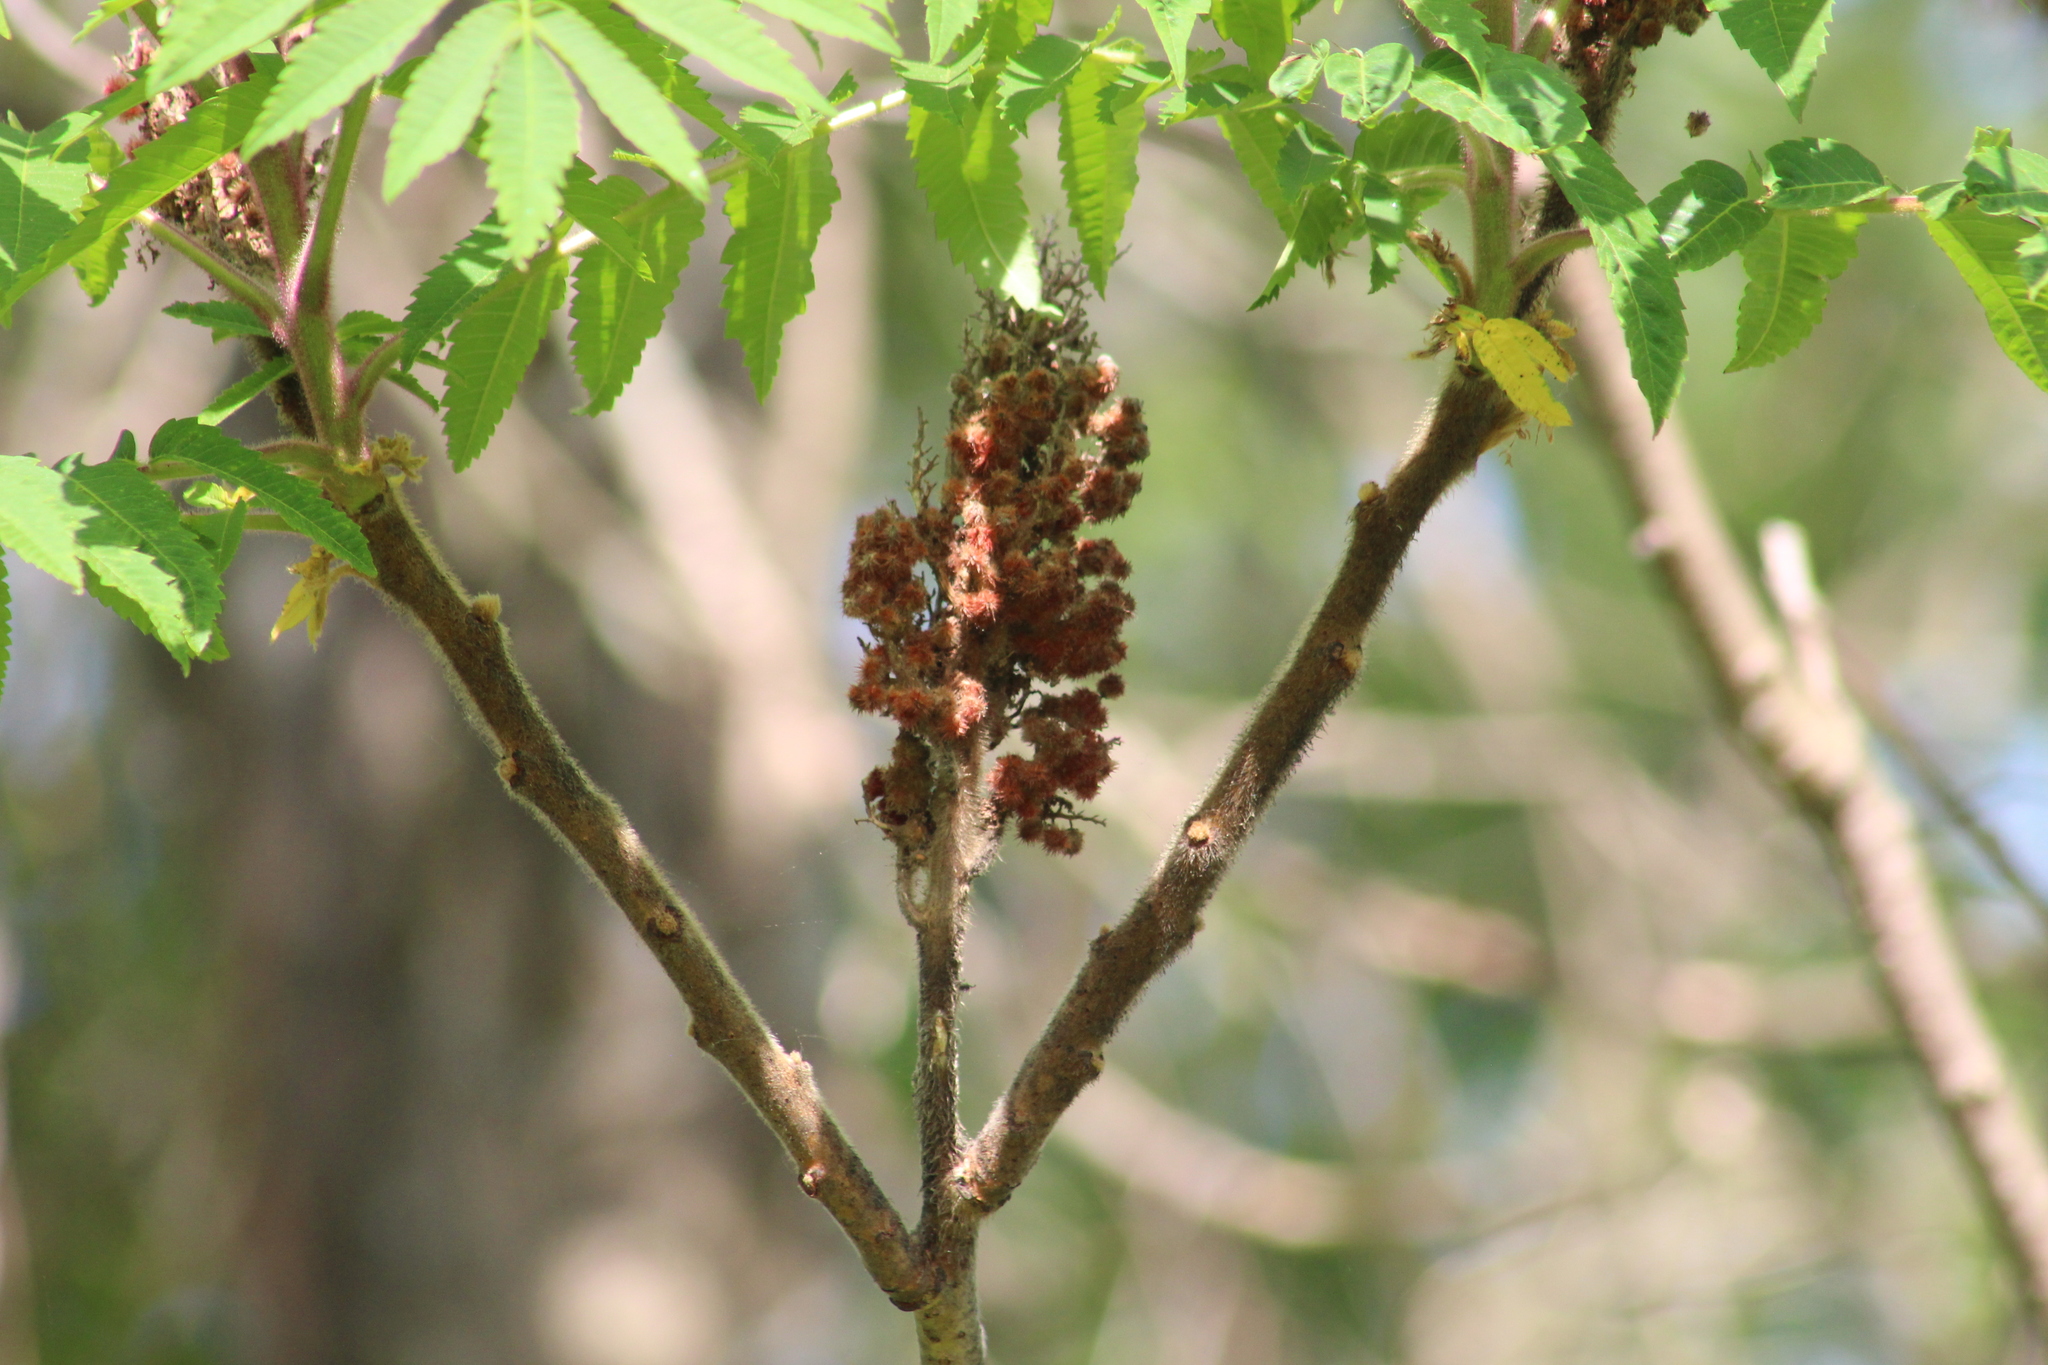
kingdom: Plantae
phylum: Tracheophyta
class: Magnoliopsida
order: Sapindales
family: Anacardiaceae
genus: Rhus
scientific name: Rhus typhina
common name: Staghorn sumac
